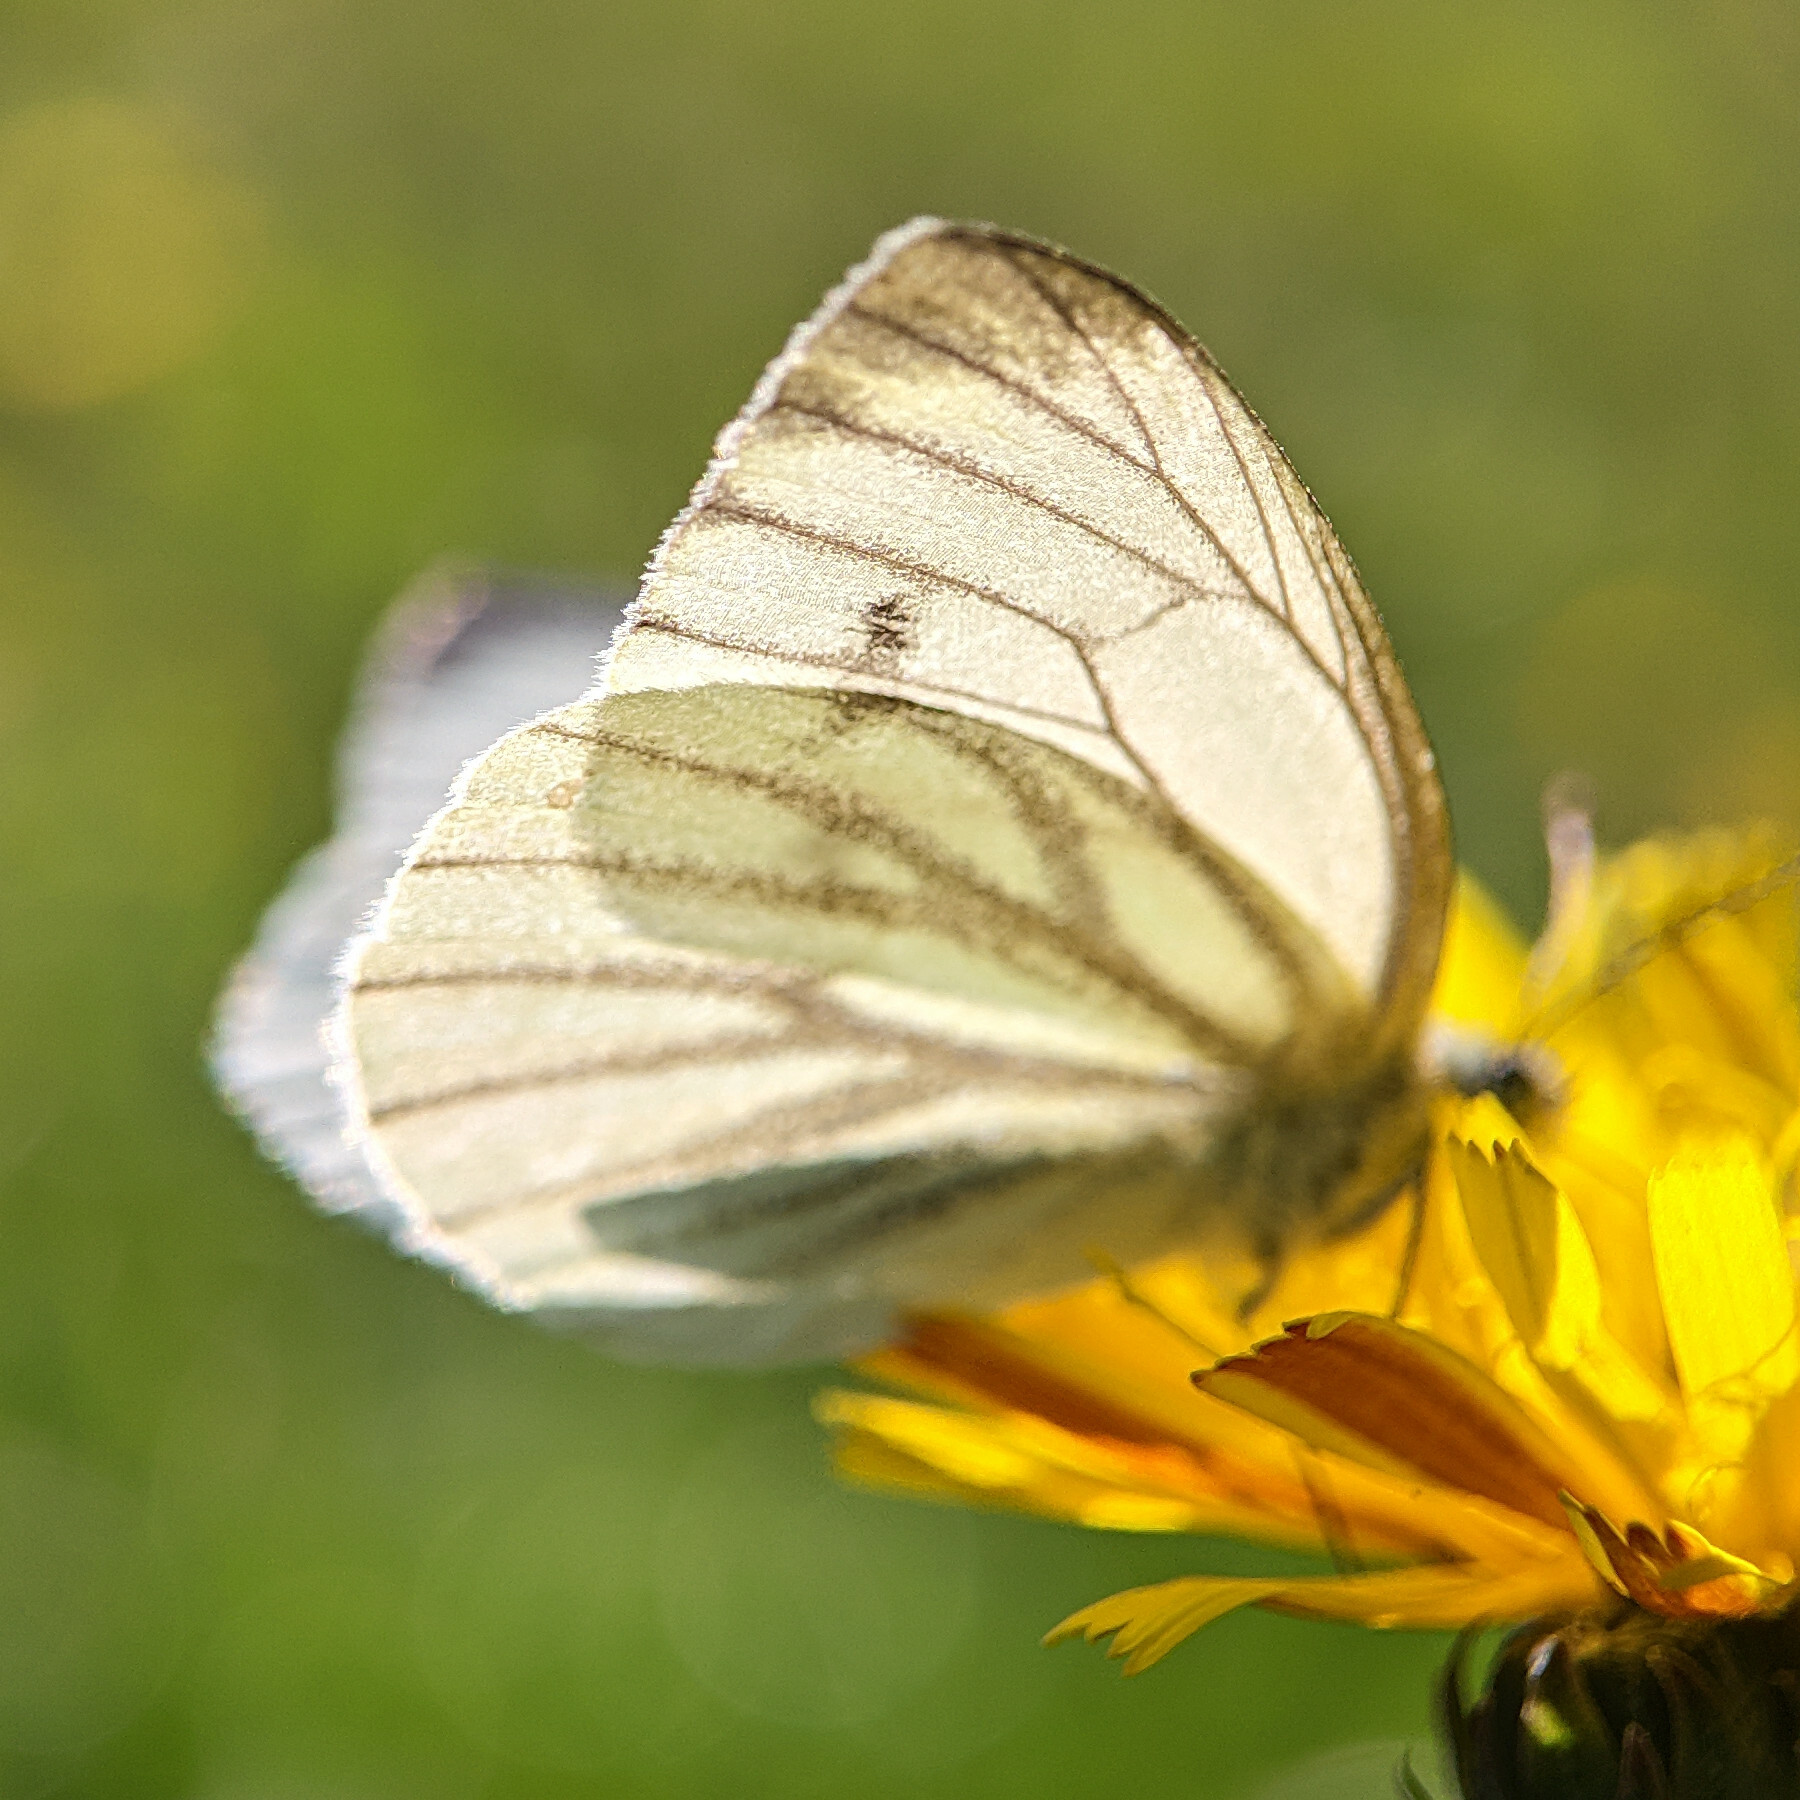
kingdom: Animalia
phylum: Arthropoda
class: Insecta
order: Lepidoptera
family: Pieridae
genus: Pieris
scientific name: Pieris napi
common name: Green-veined white
